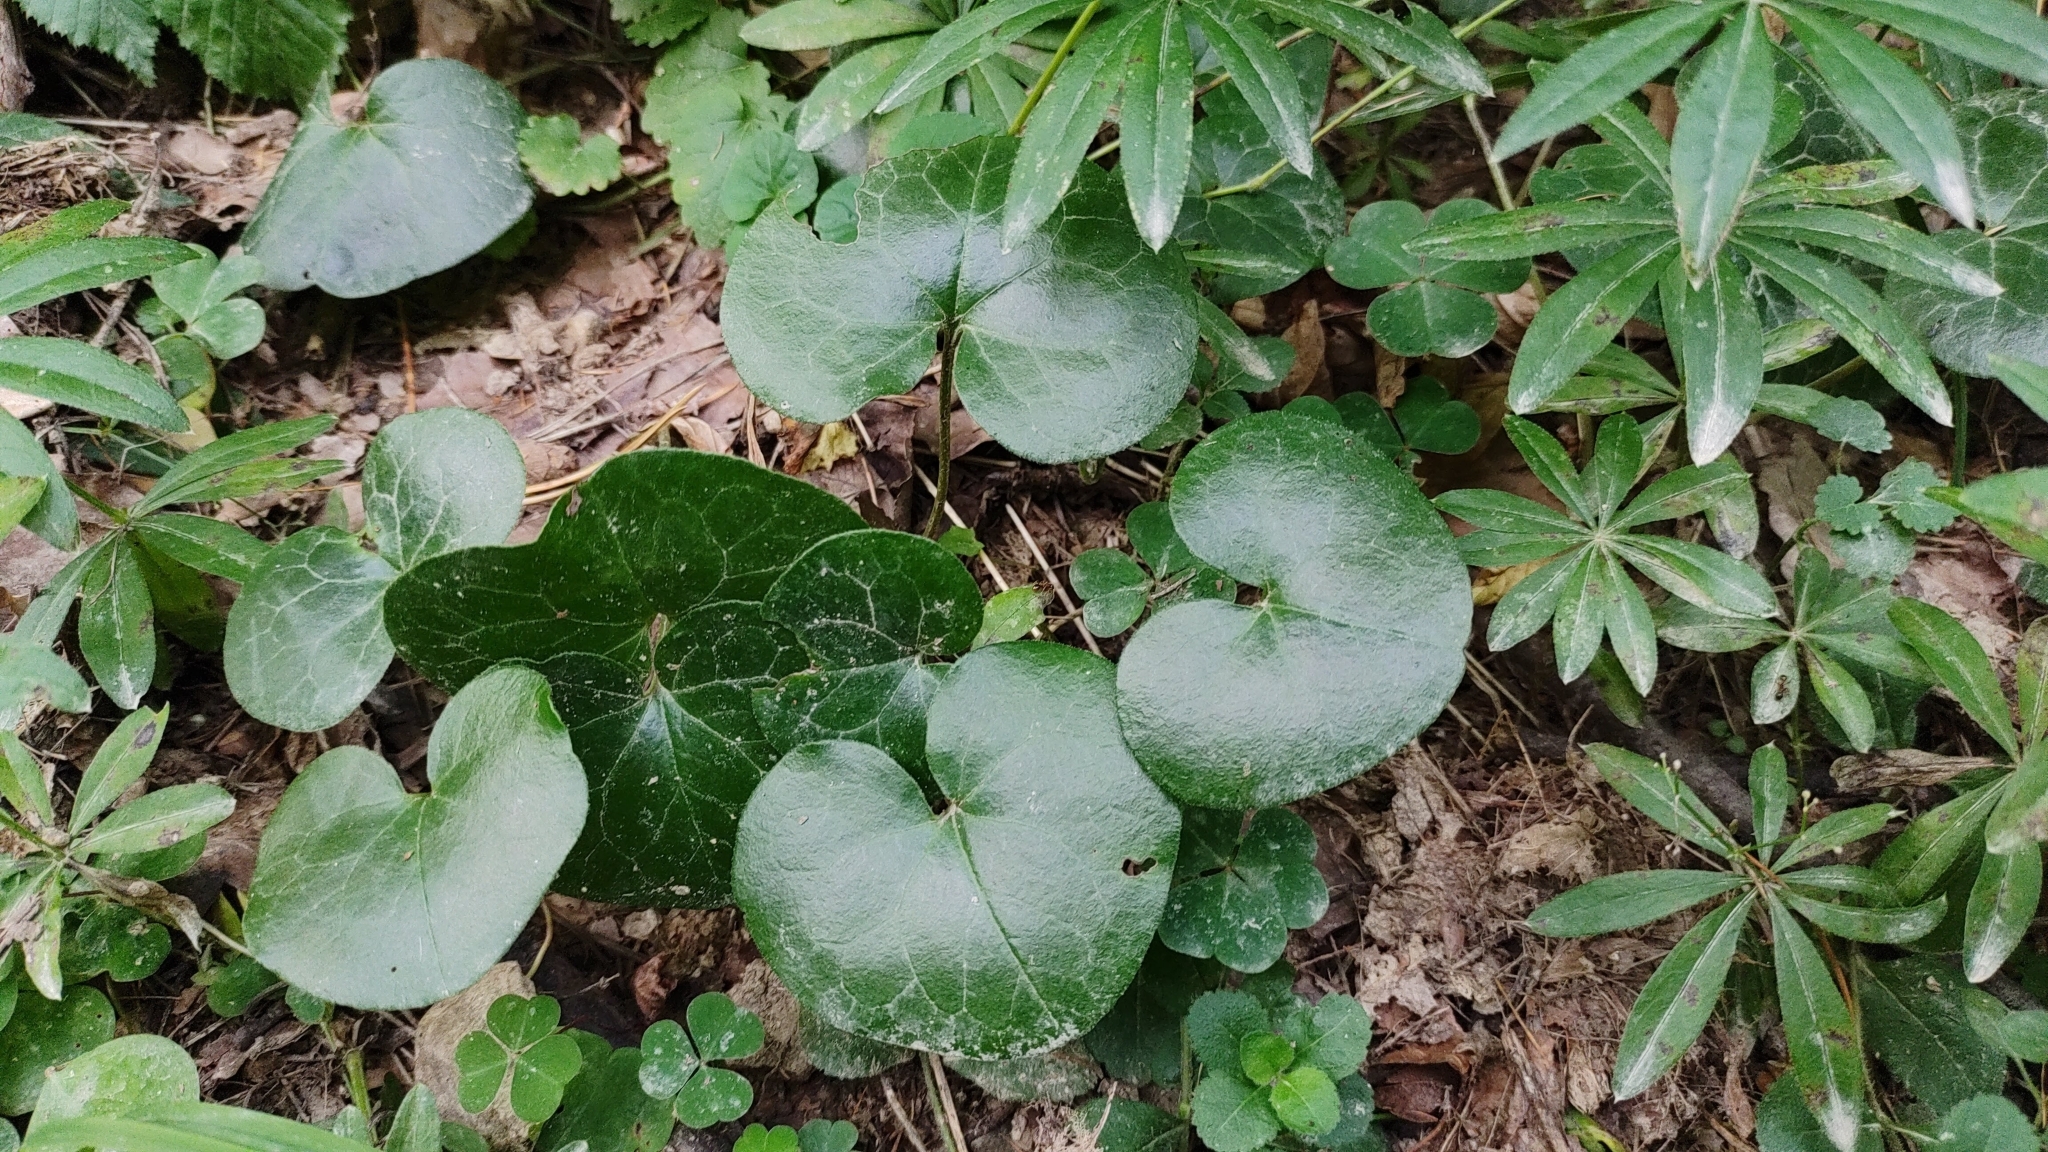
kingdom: Plantae
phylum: Tracheophyta
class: Magnoliopsida
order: Piperales
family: Aristolochiaceae
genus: Asarum
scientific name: Asarum europaeum
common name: Asarabacca
